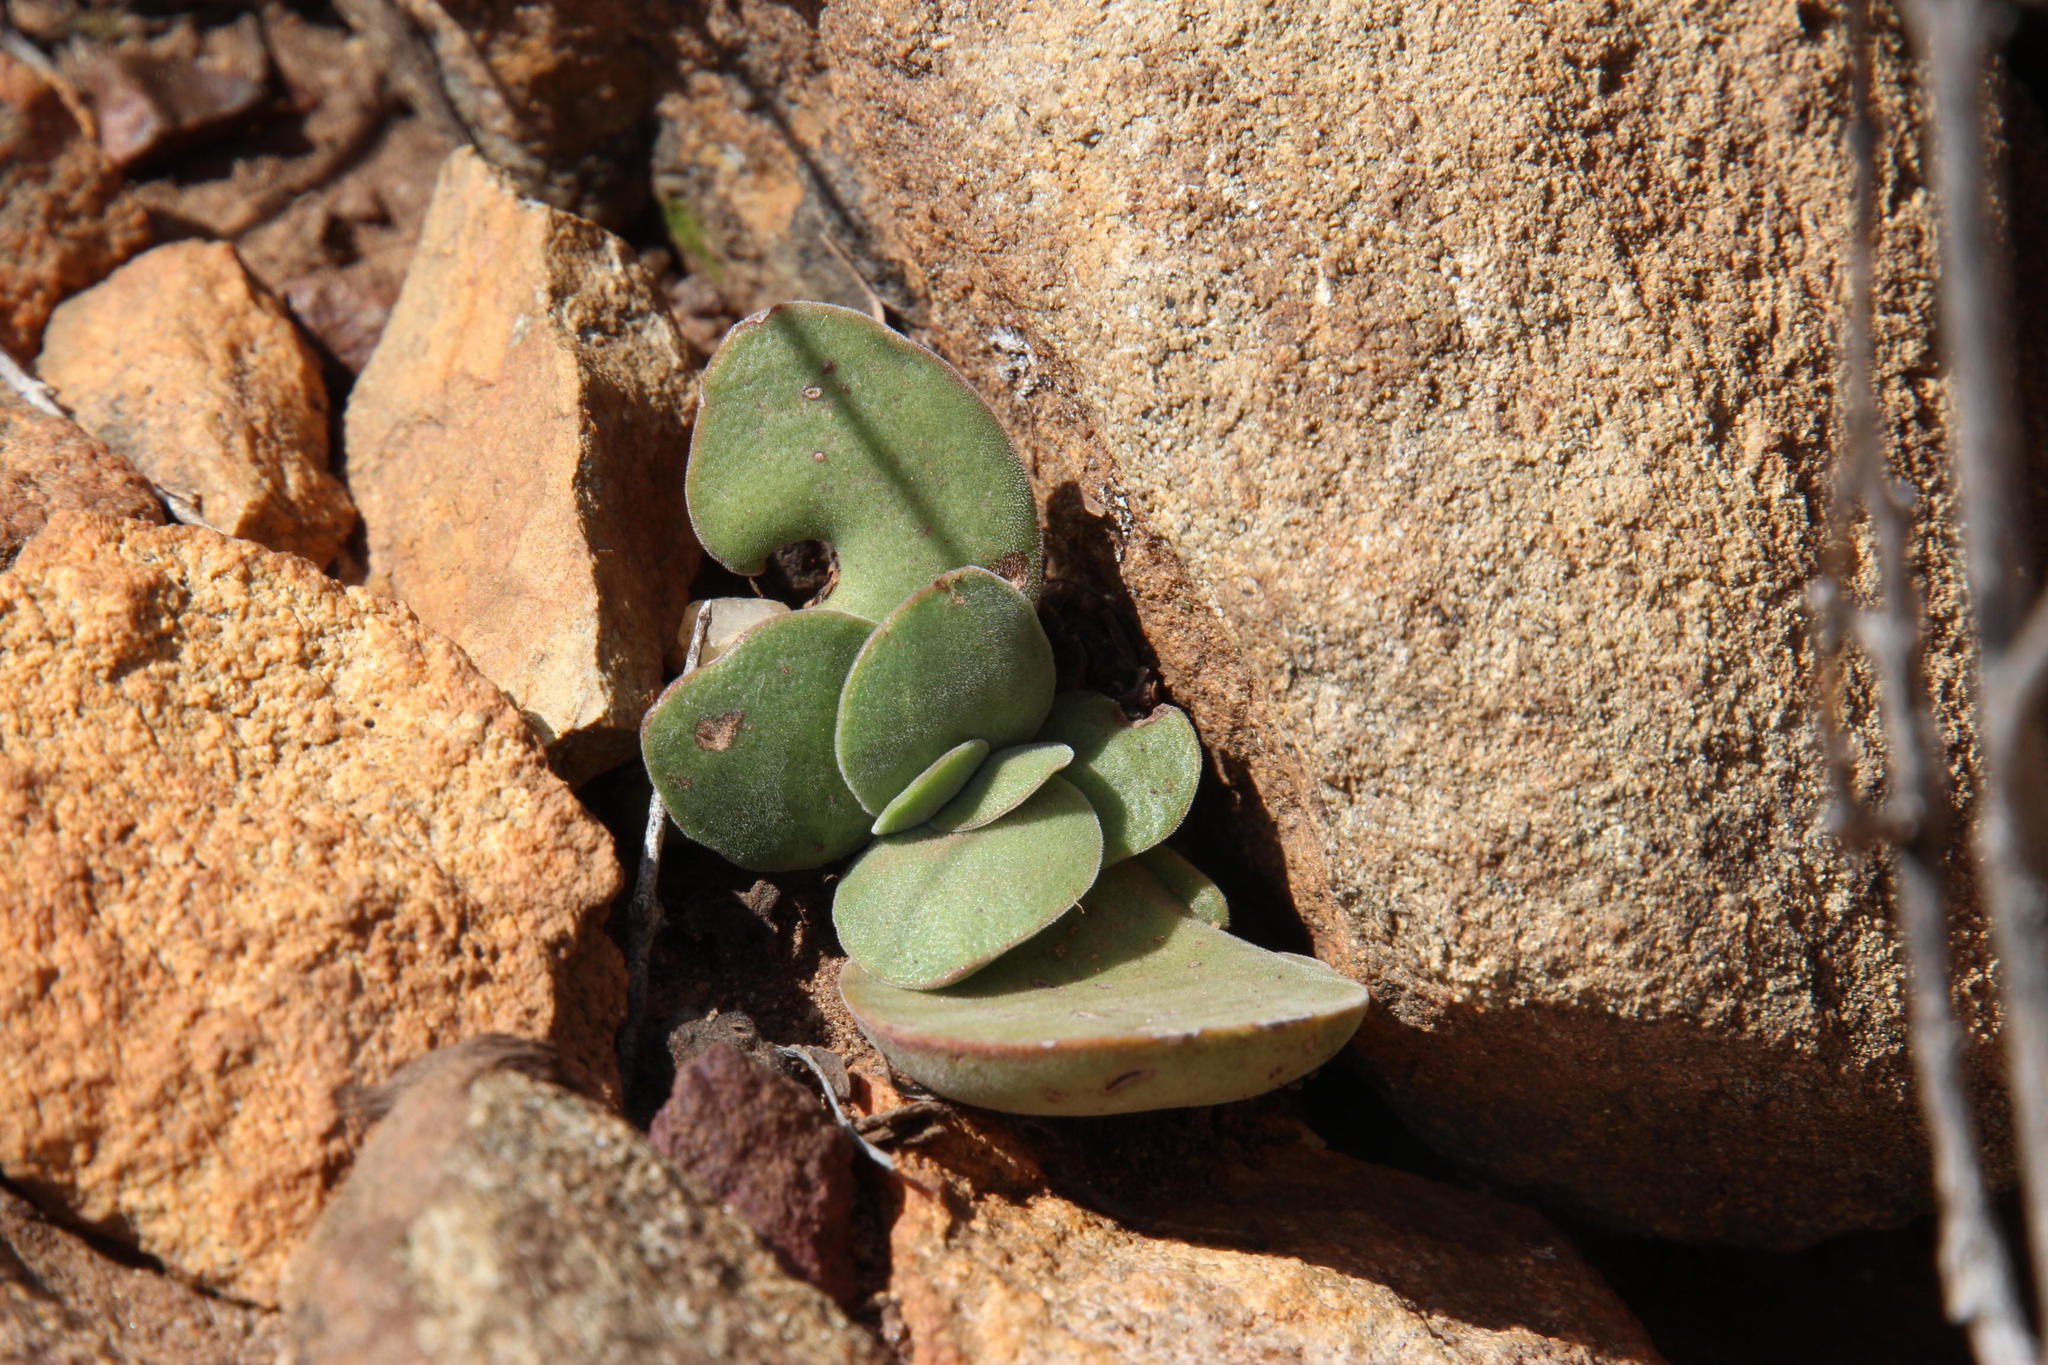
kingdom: Plantae
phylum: Tracheophyta
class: Magnoliopsida
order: Saxifragales
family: Crassulaceae
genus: Crassula
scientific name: Crassula pubescens
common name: Jersey pigmyweed
